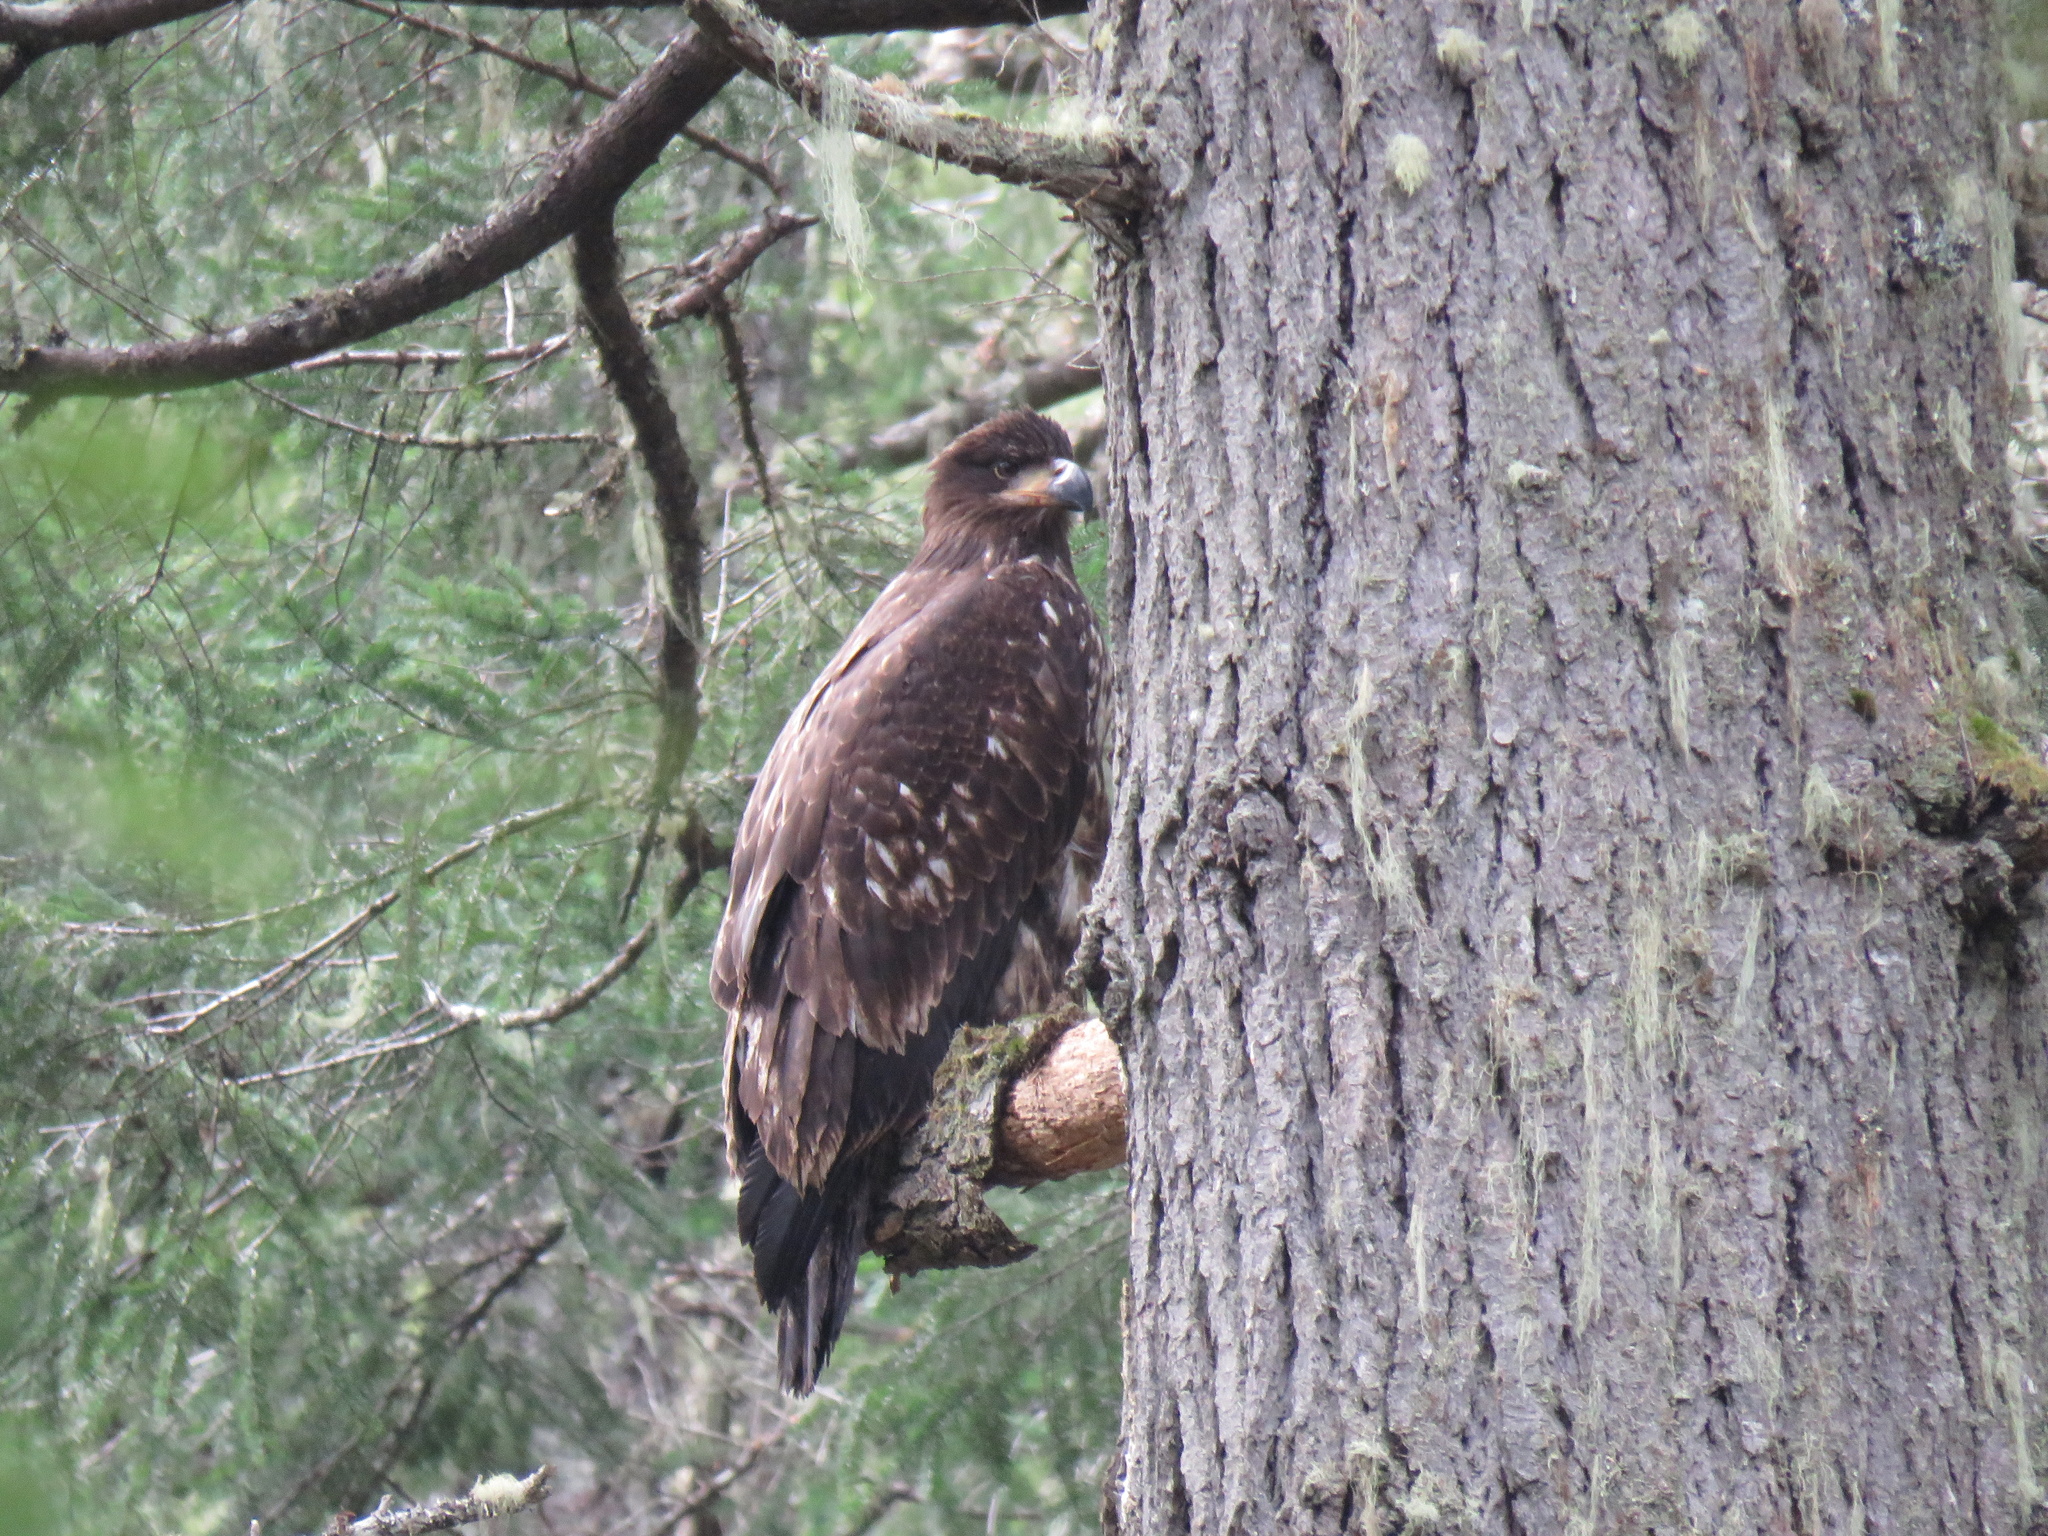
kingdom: Animalia
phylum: Chordata
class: Aves
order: Accipitriformes
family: Accipitridae
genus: Haliaeetus
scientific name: Haliaeetus leucocephalus
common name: Bald eagle
